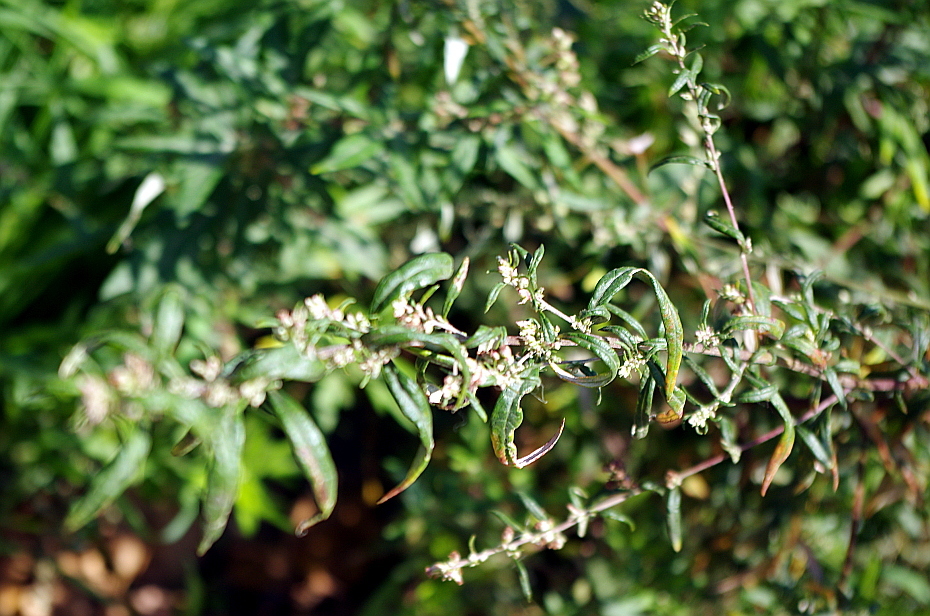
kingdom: Plantae
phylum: Tracheophyta
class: Magnoliopsida
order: Asterales
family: Asteraceae
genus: Artemisia
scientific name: Artemisia vulgaris
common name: Mugwort
